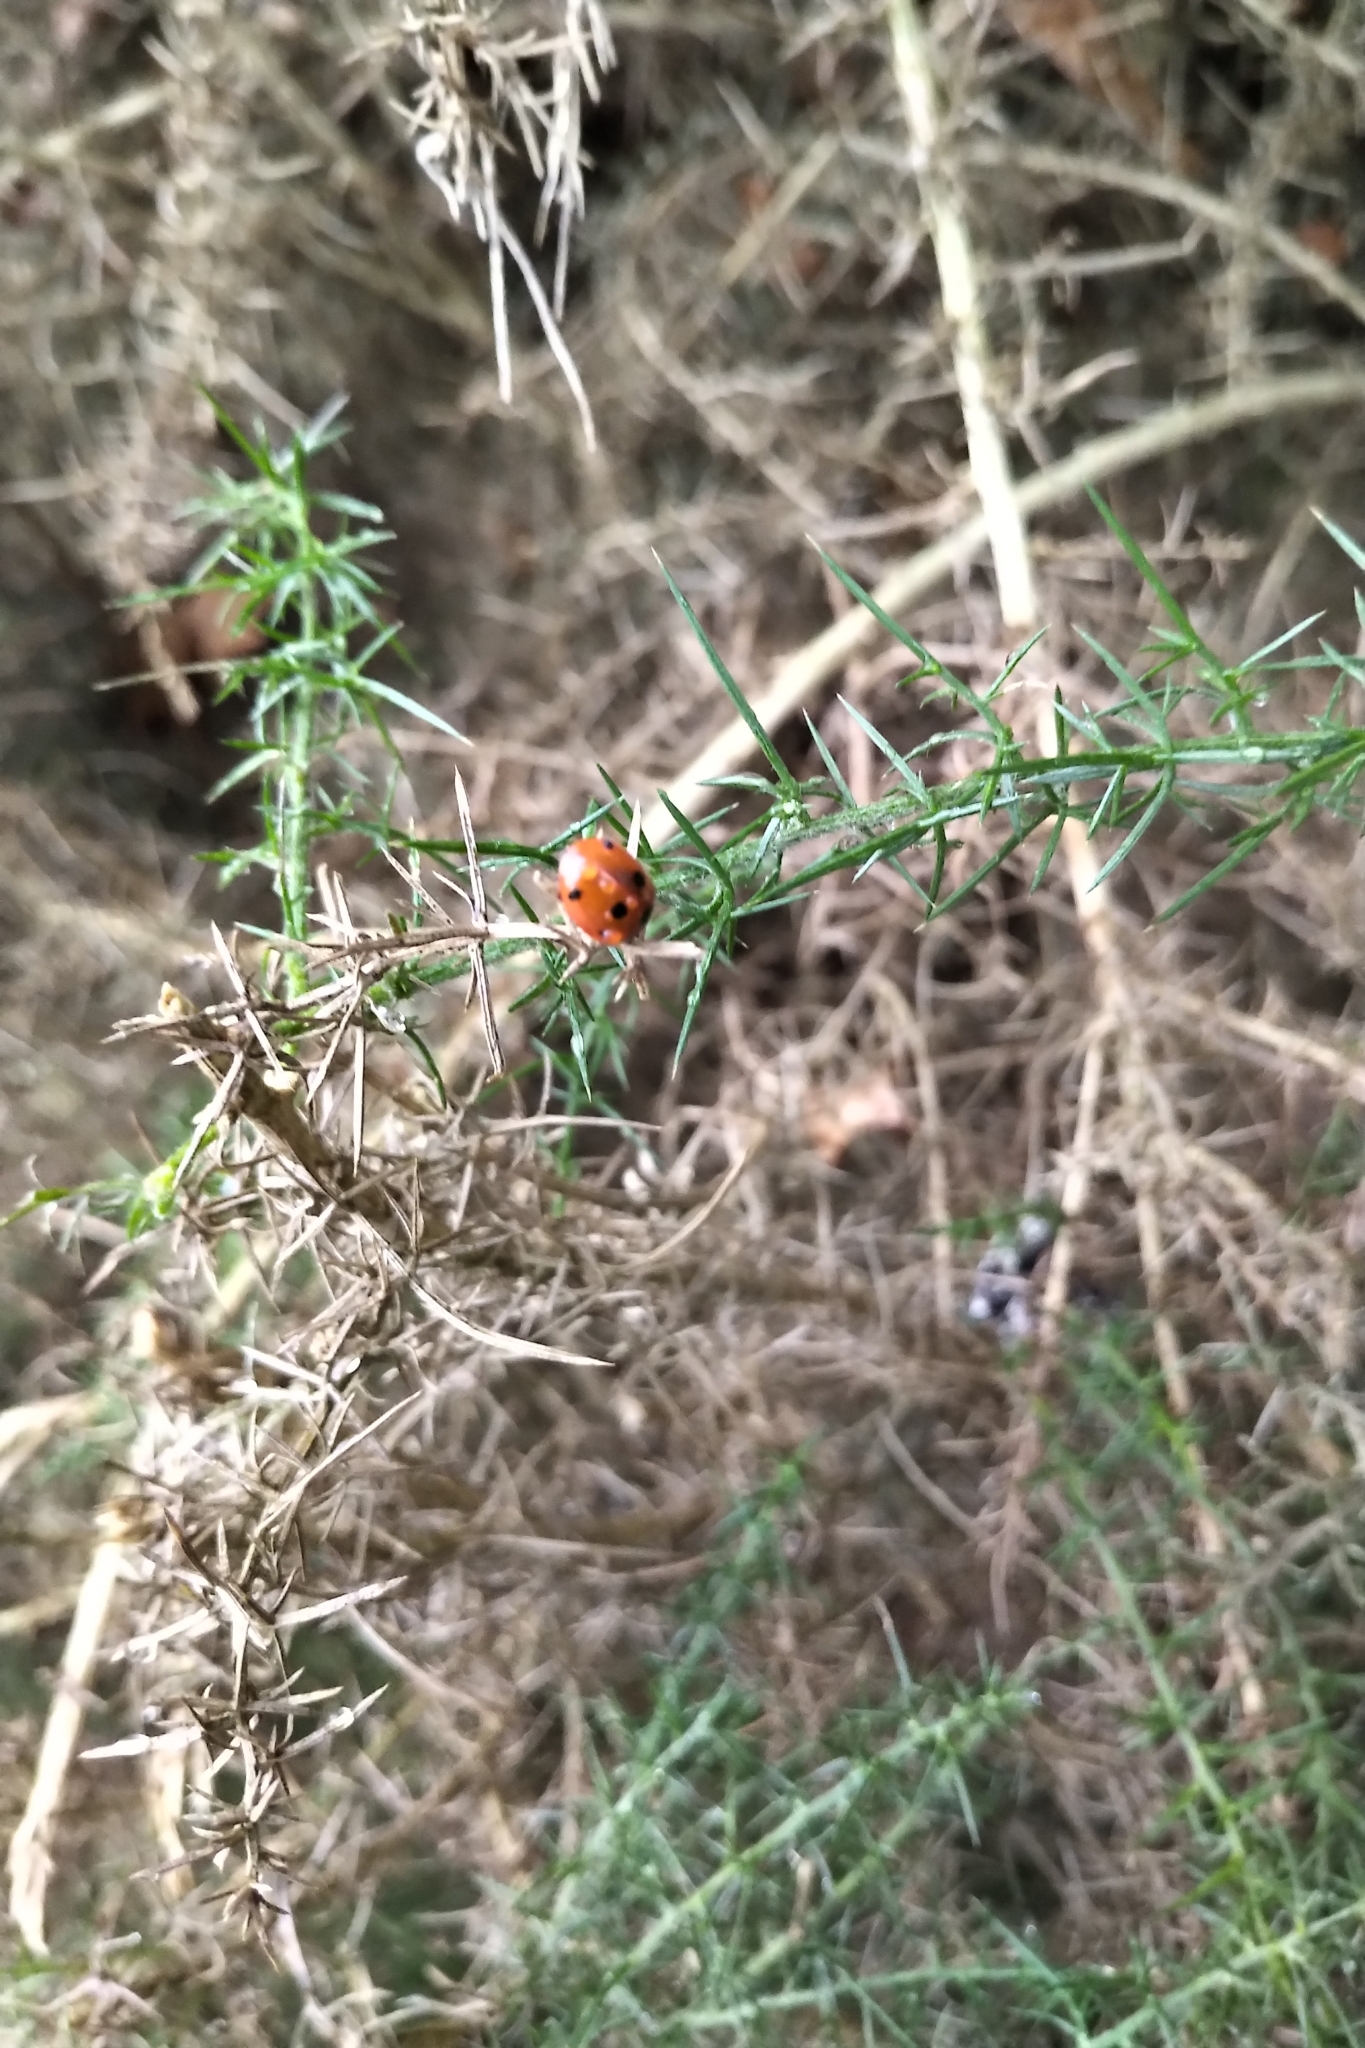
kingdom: Animalia
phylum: Arthropoda
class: Insecta
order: Coleoptera
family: Coccinellidae
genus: Coccinella
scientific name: Coccinella septempunctata
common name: Sevenspotted lady beetle
